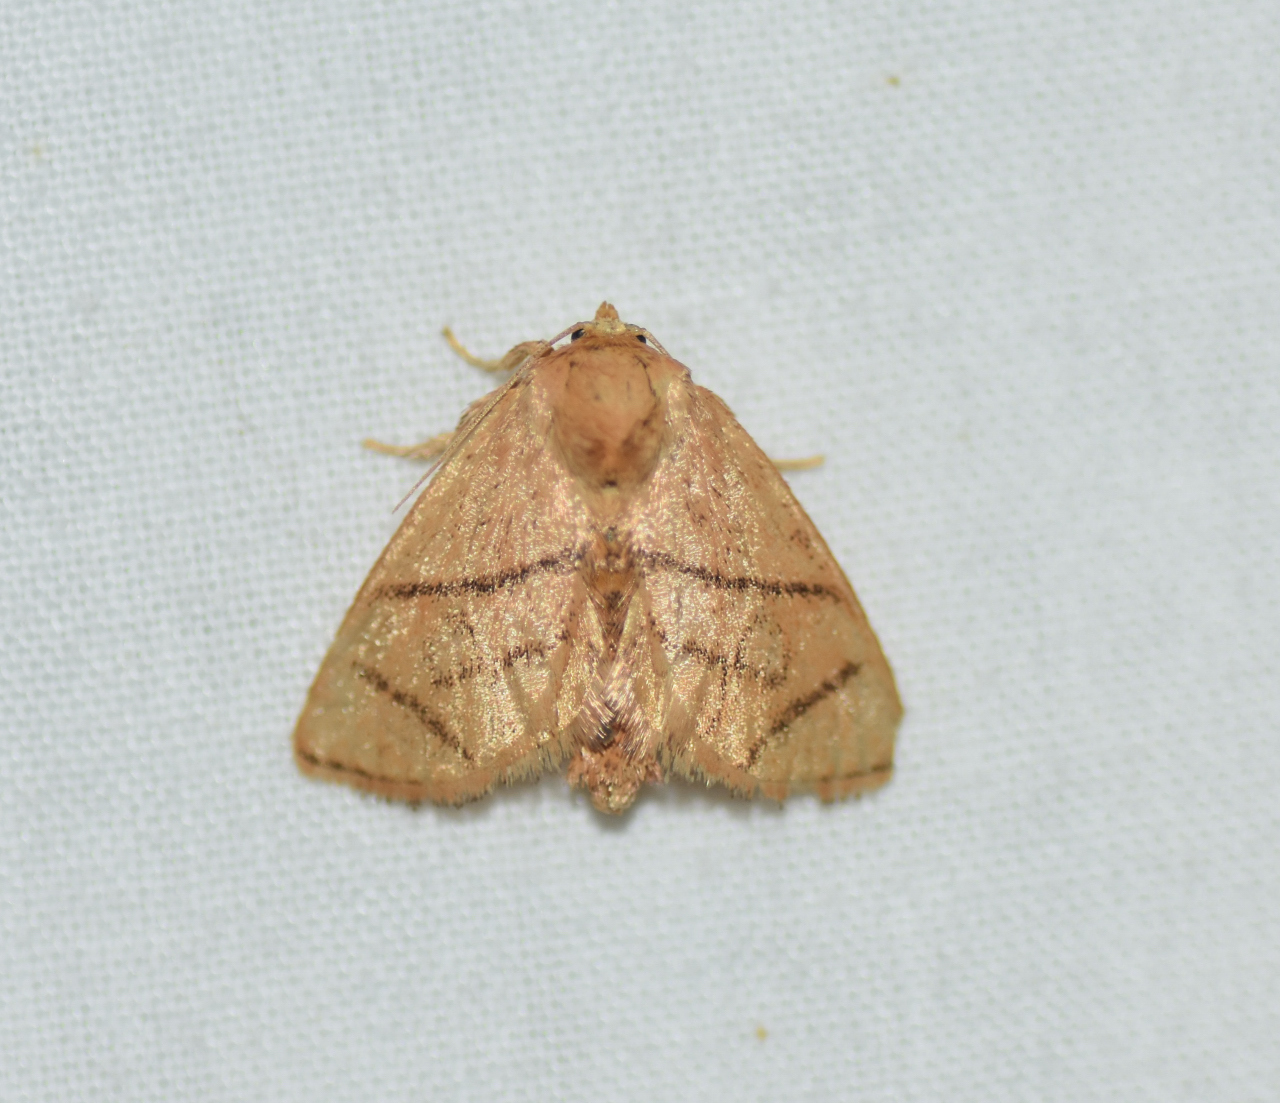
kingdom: Animalia
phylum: Arthropoda
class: Insecta
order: Lepidoptera
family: Limacodidae
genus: Apoda
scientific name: Apoda y-inversa
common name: Yellow-collared slug moth
